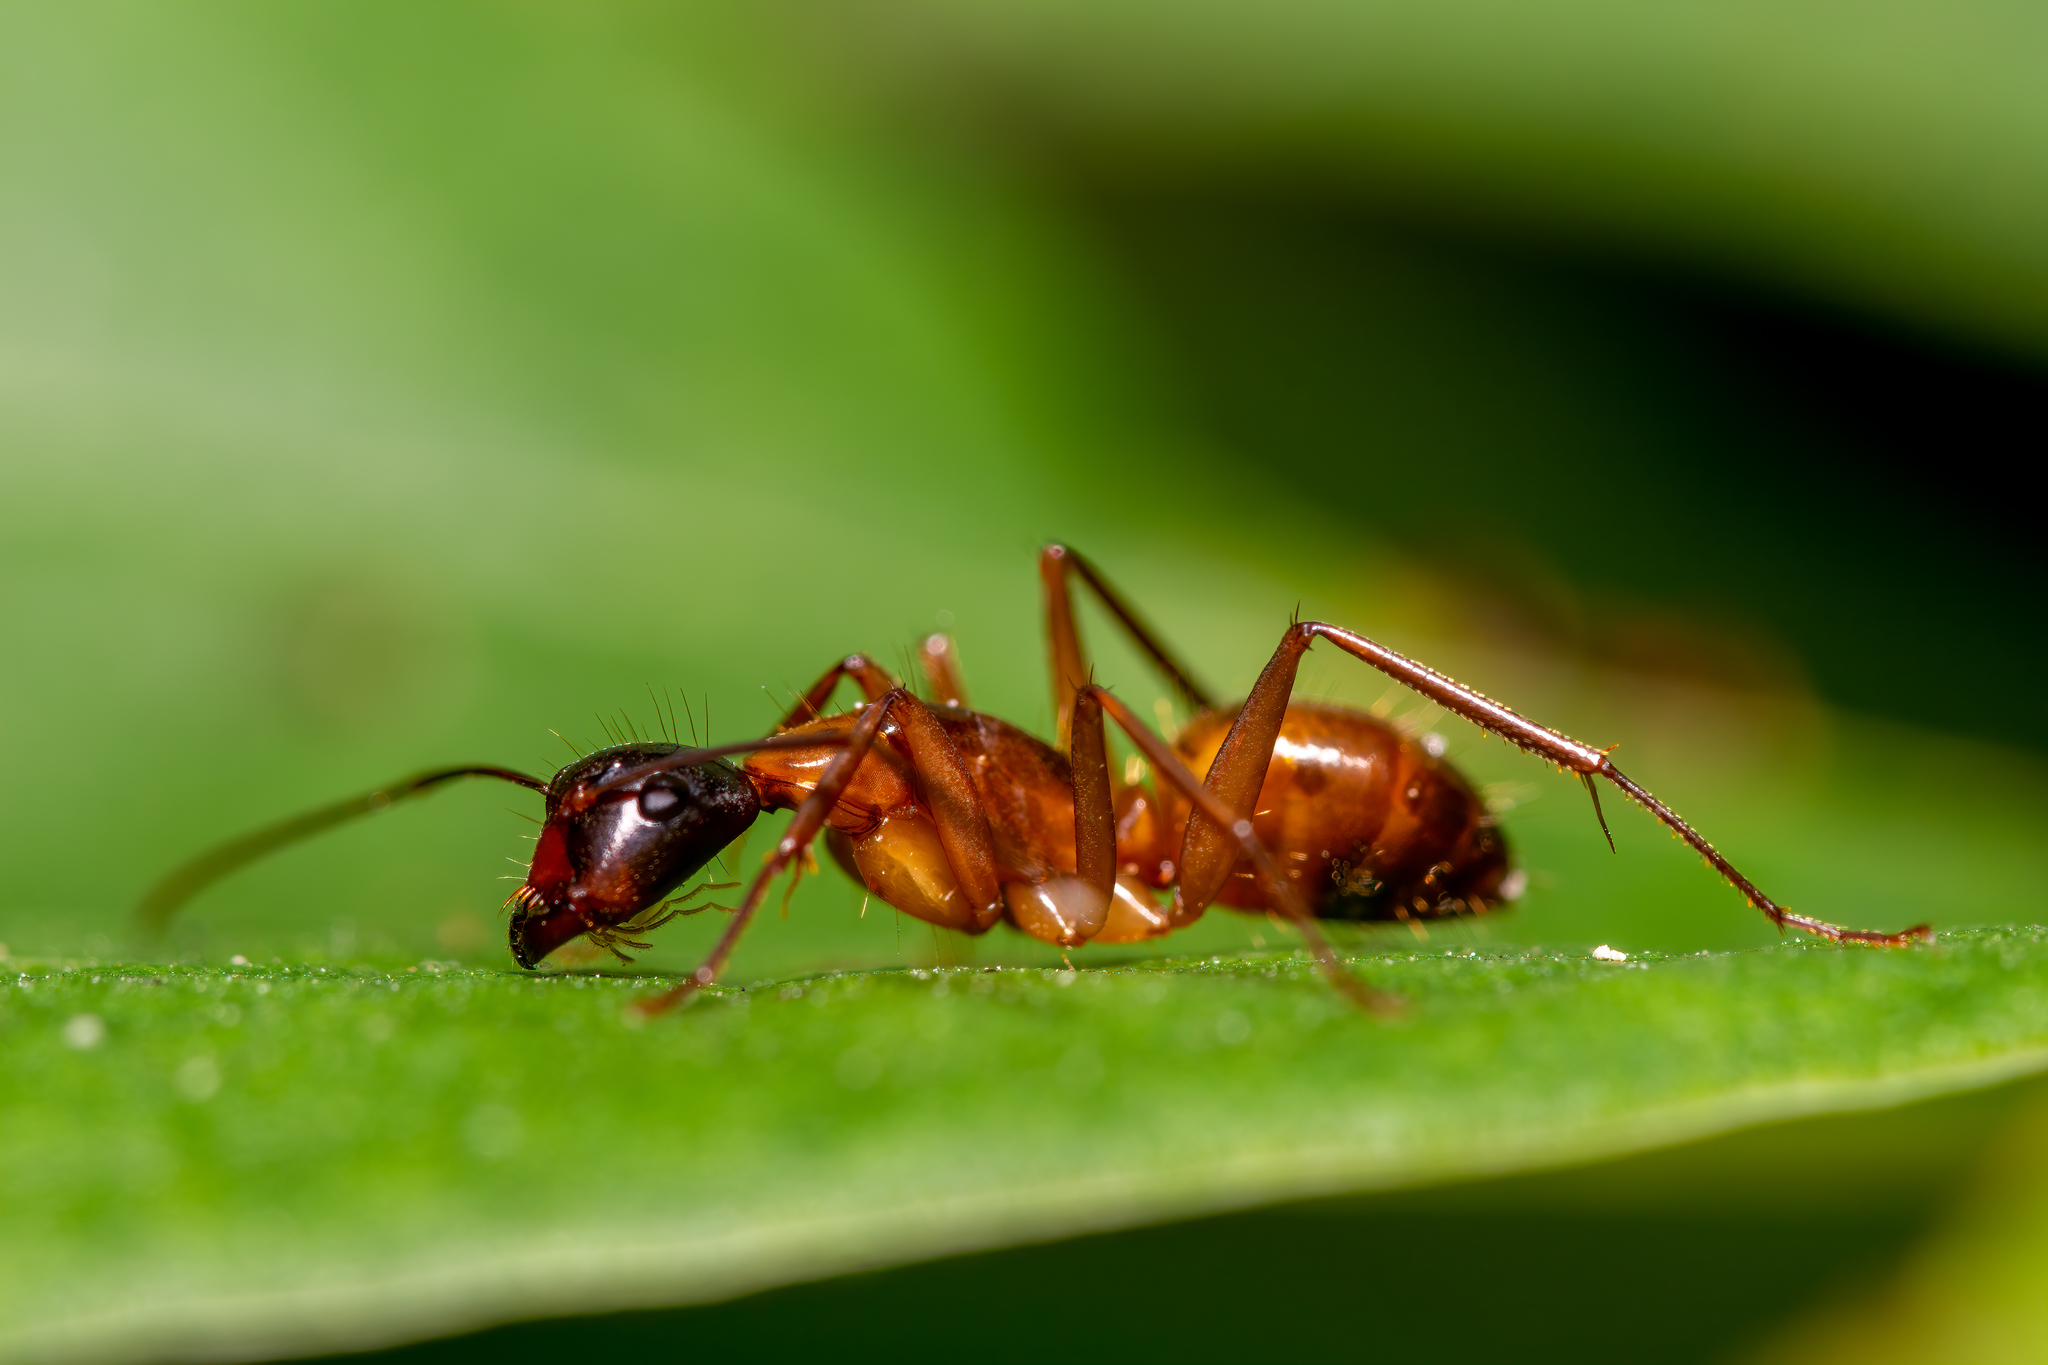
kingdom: Animalia
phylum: Arthropoda
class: Insecta
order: Hymenoptera
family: Formicidae
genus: Camponotus
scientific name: Camponotus americanus
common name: American carpenter ant
